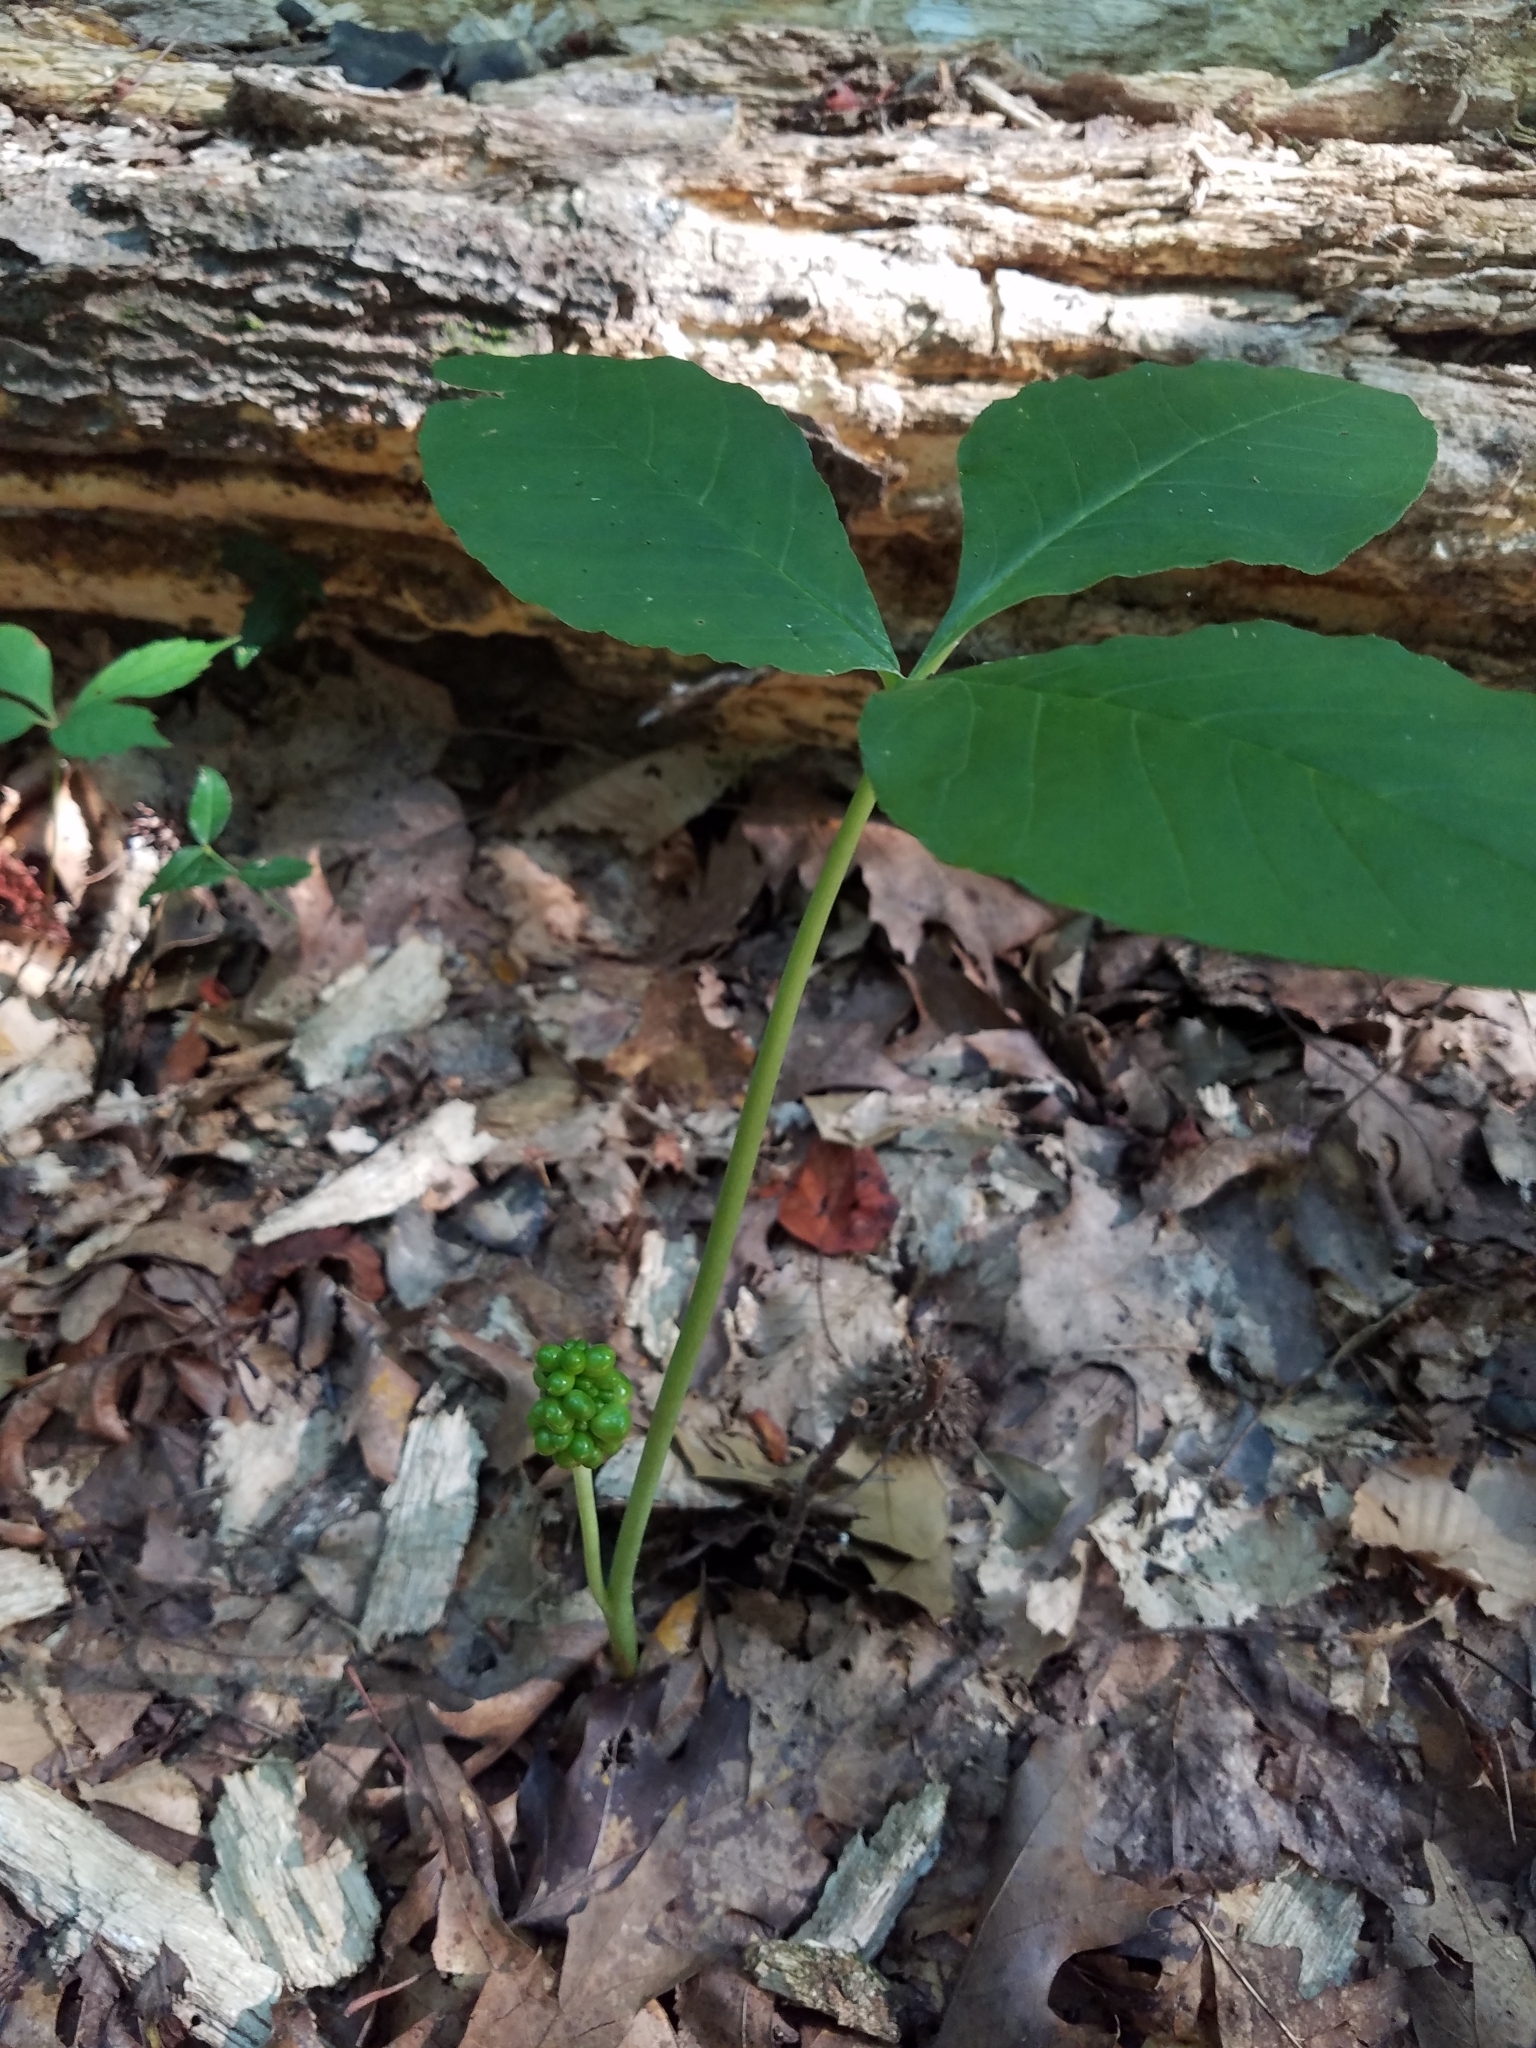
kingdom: Plantae
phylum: Tracheophyta
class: Liliopsida
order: Alismatales
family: Araceae
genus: Arisaema
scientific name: Arisaema triphyllum
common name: Jack-in-the-pulpit
